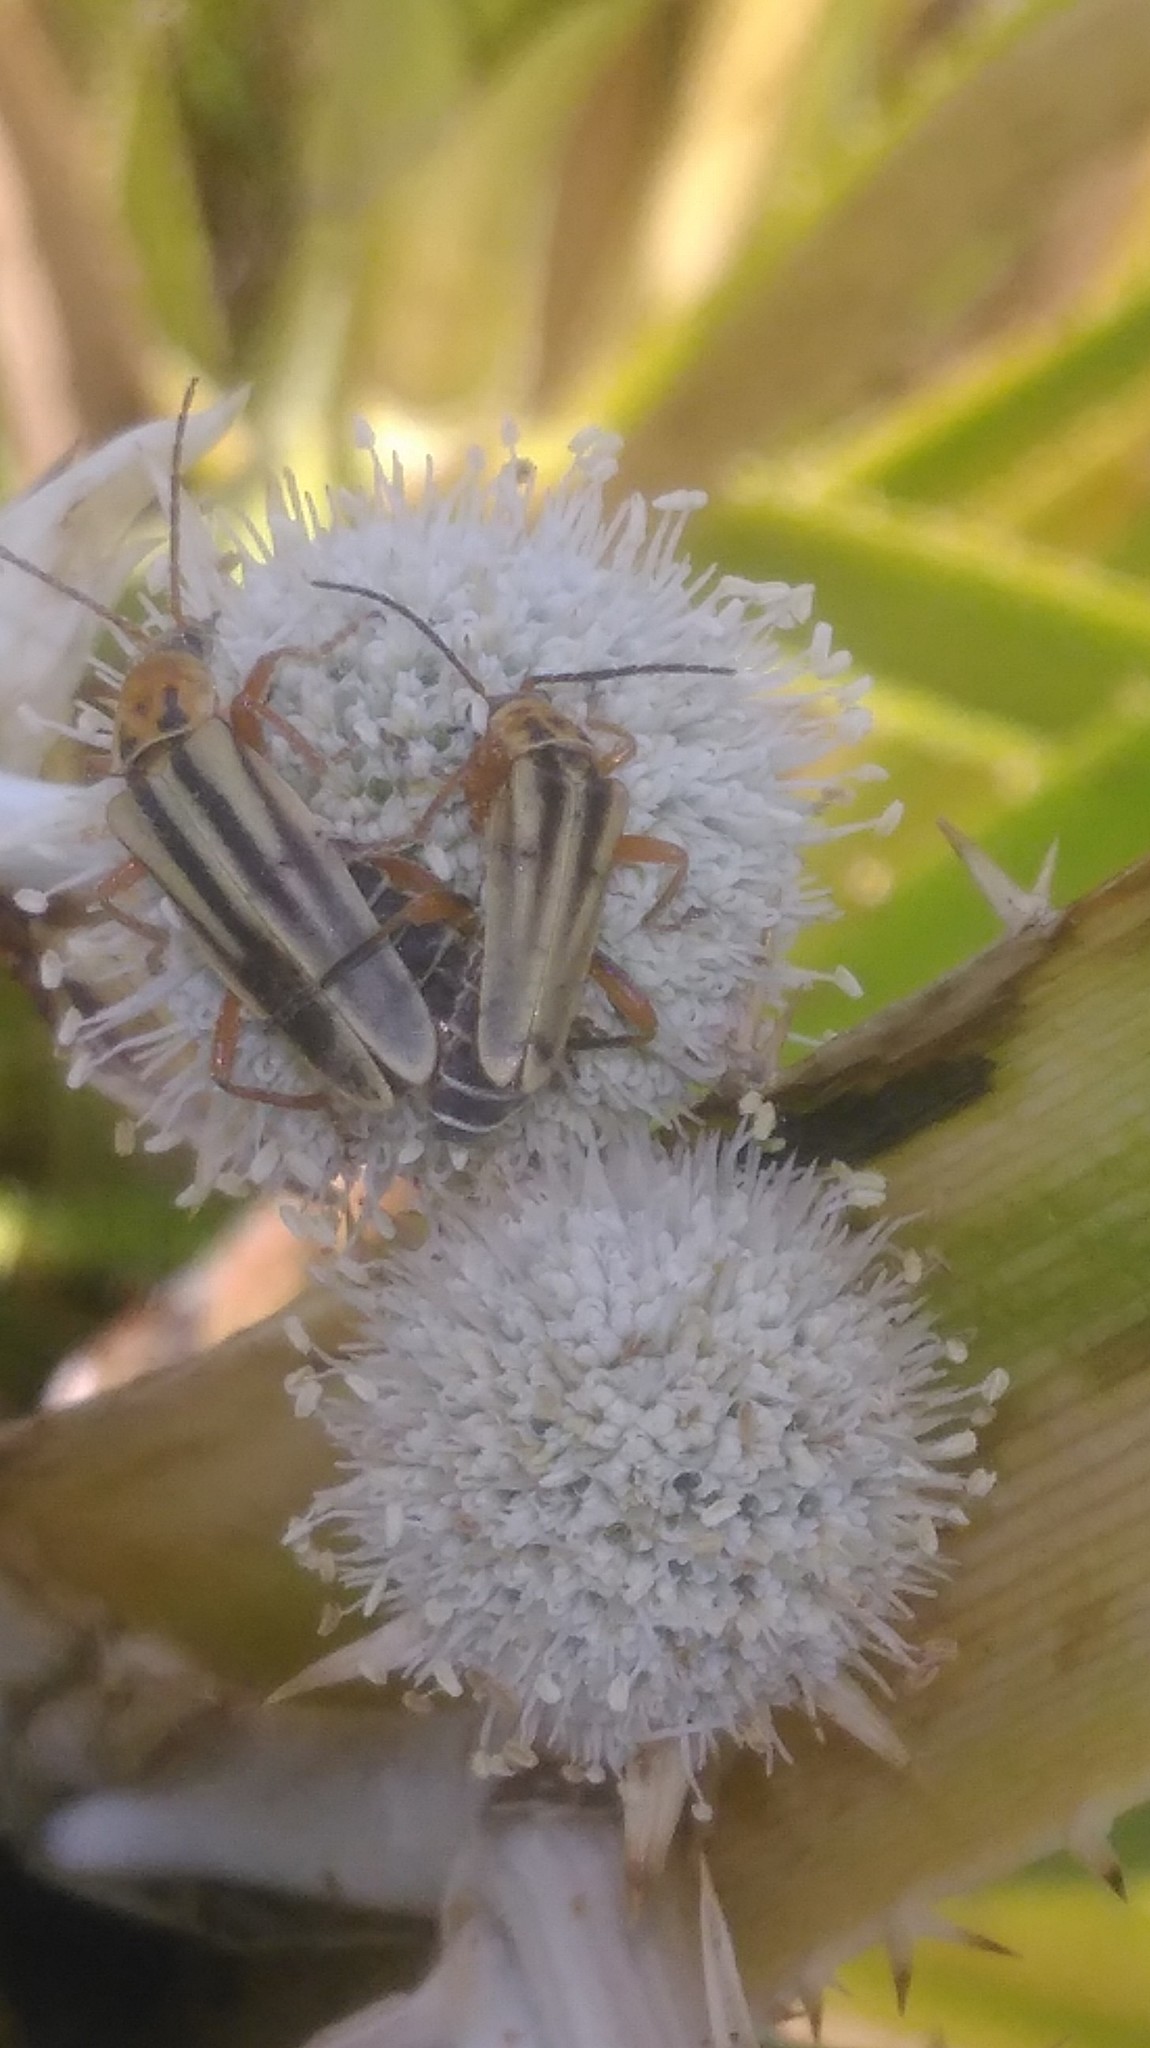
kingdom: Animalia
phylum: Arthropoda
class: Insecta
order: Coleoptera
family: Cantharidae
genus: Chauliognathus
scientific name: Chauliognathus
